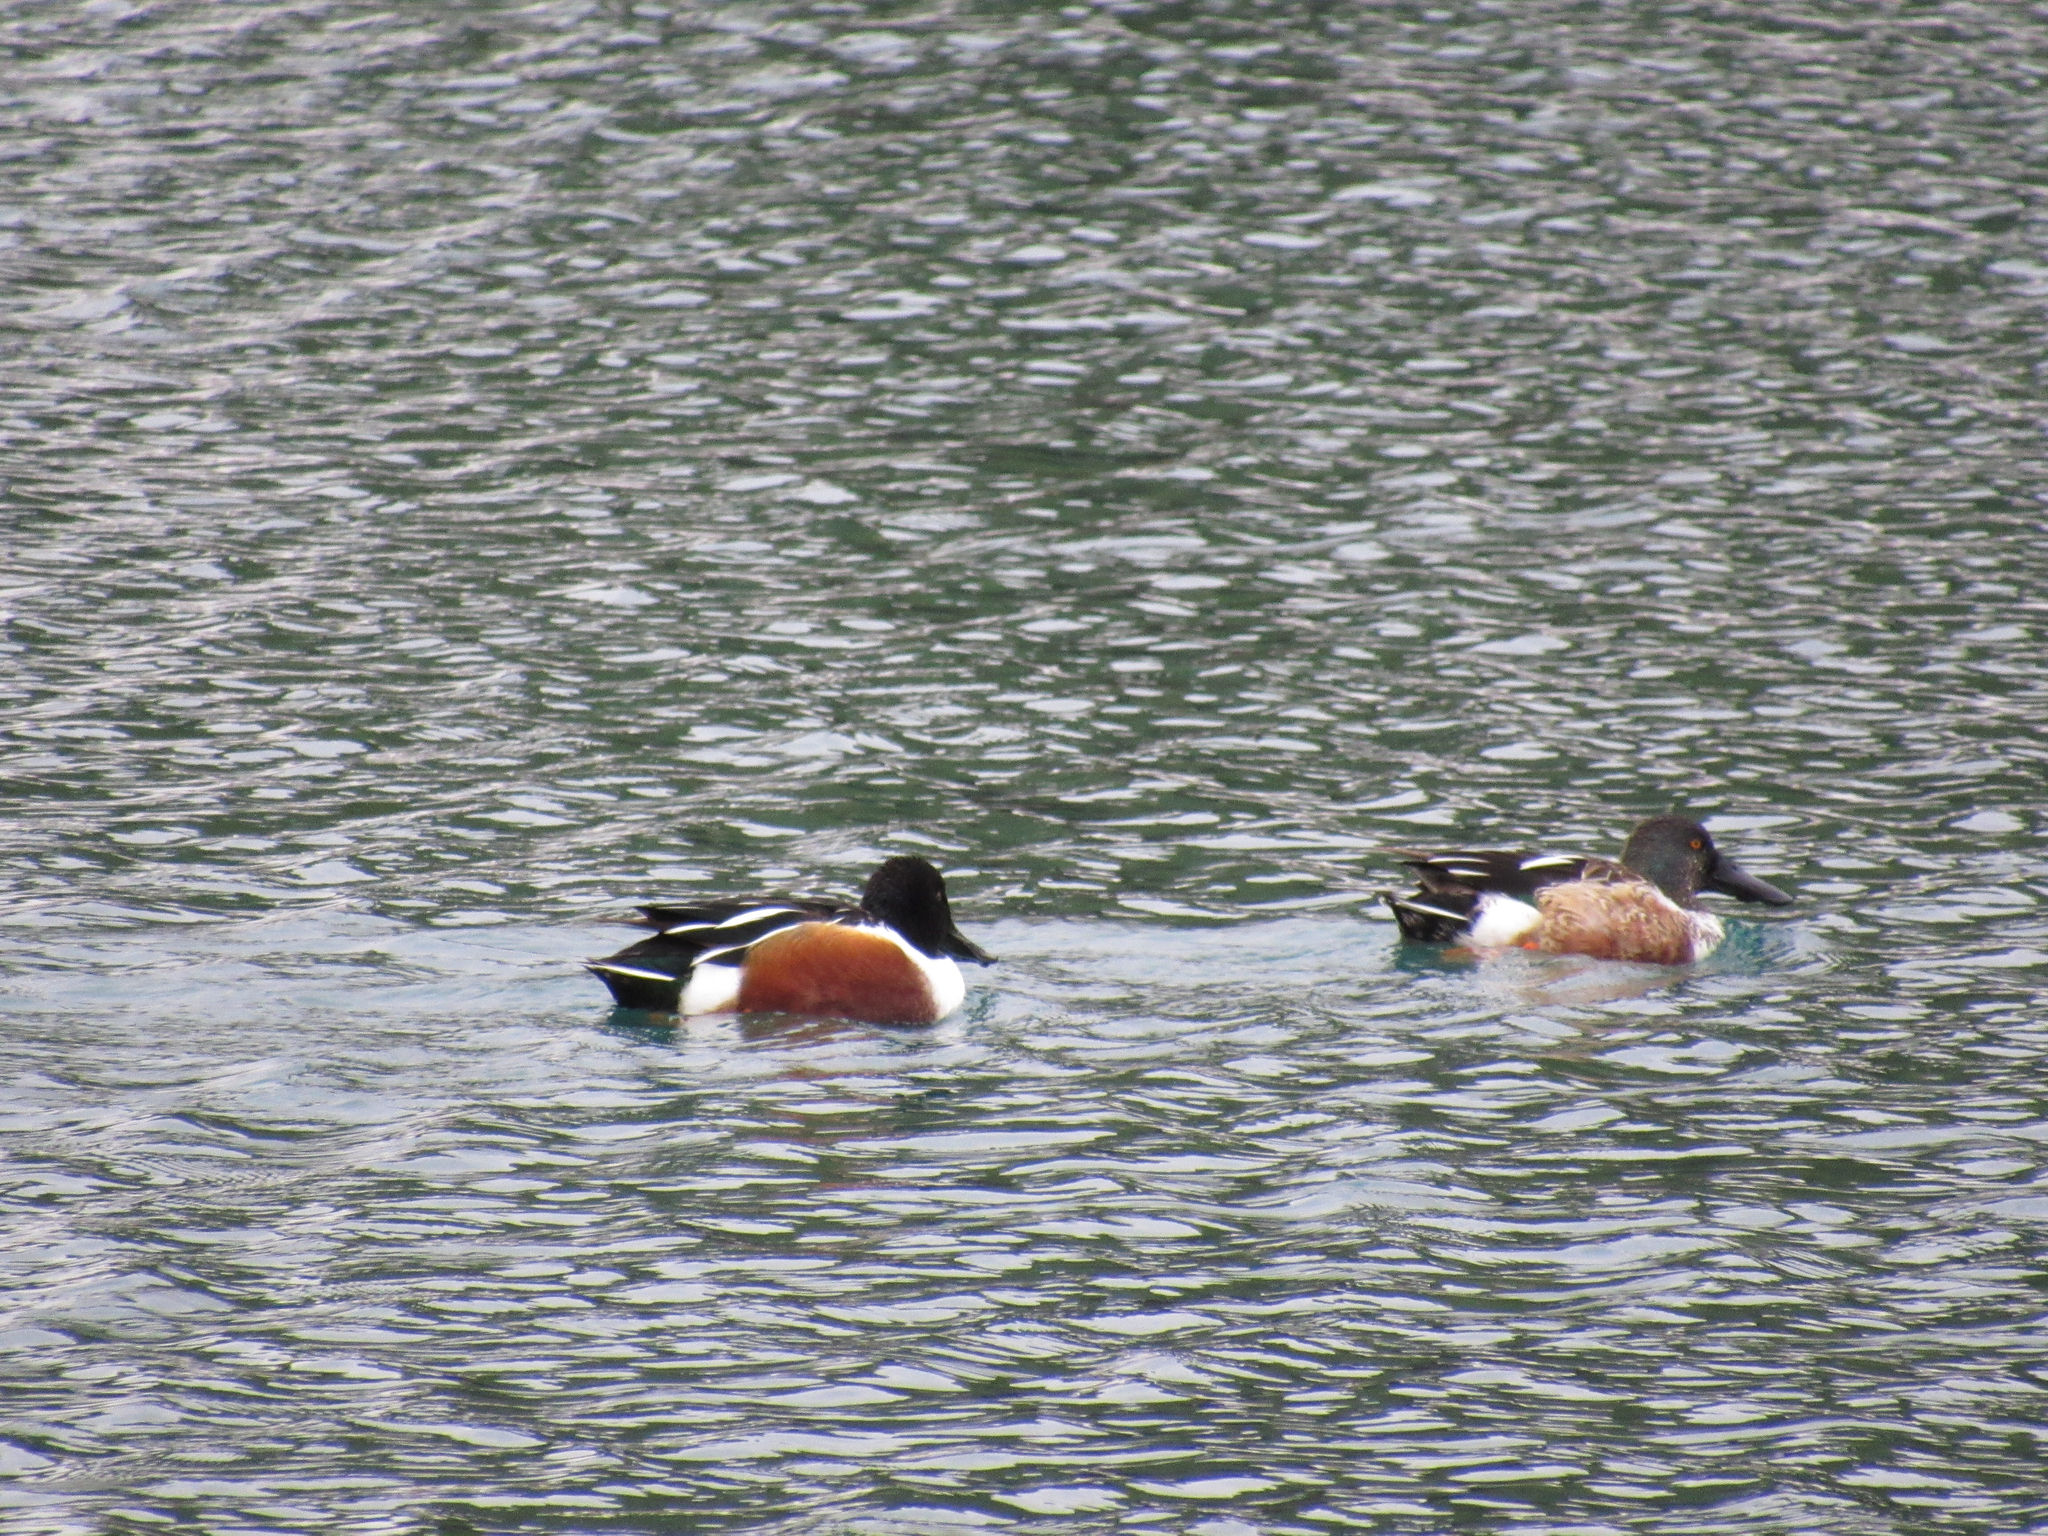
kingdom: Animalia
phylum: Chordata
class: Aves
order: Anseriformes
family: Anatidae
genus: Spatula
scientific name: Spatula clypeata
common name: Northern shoveler
